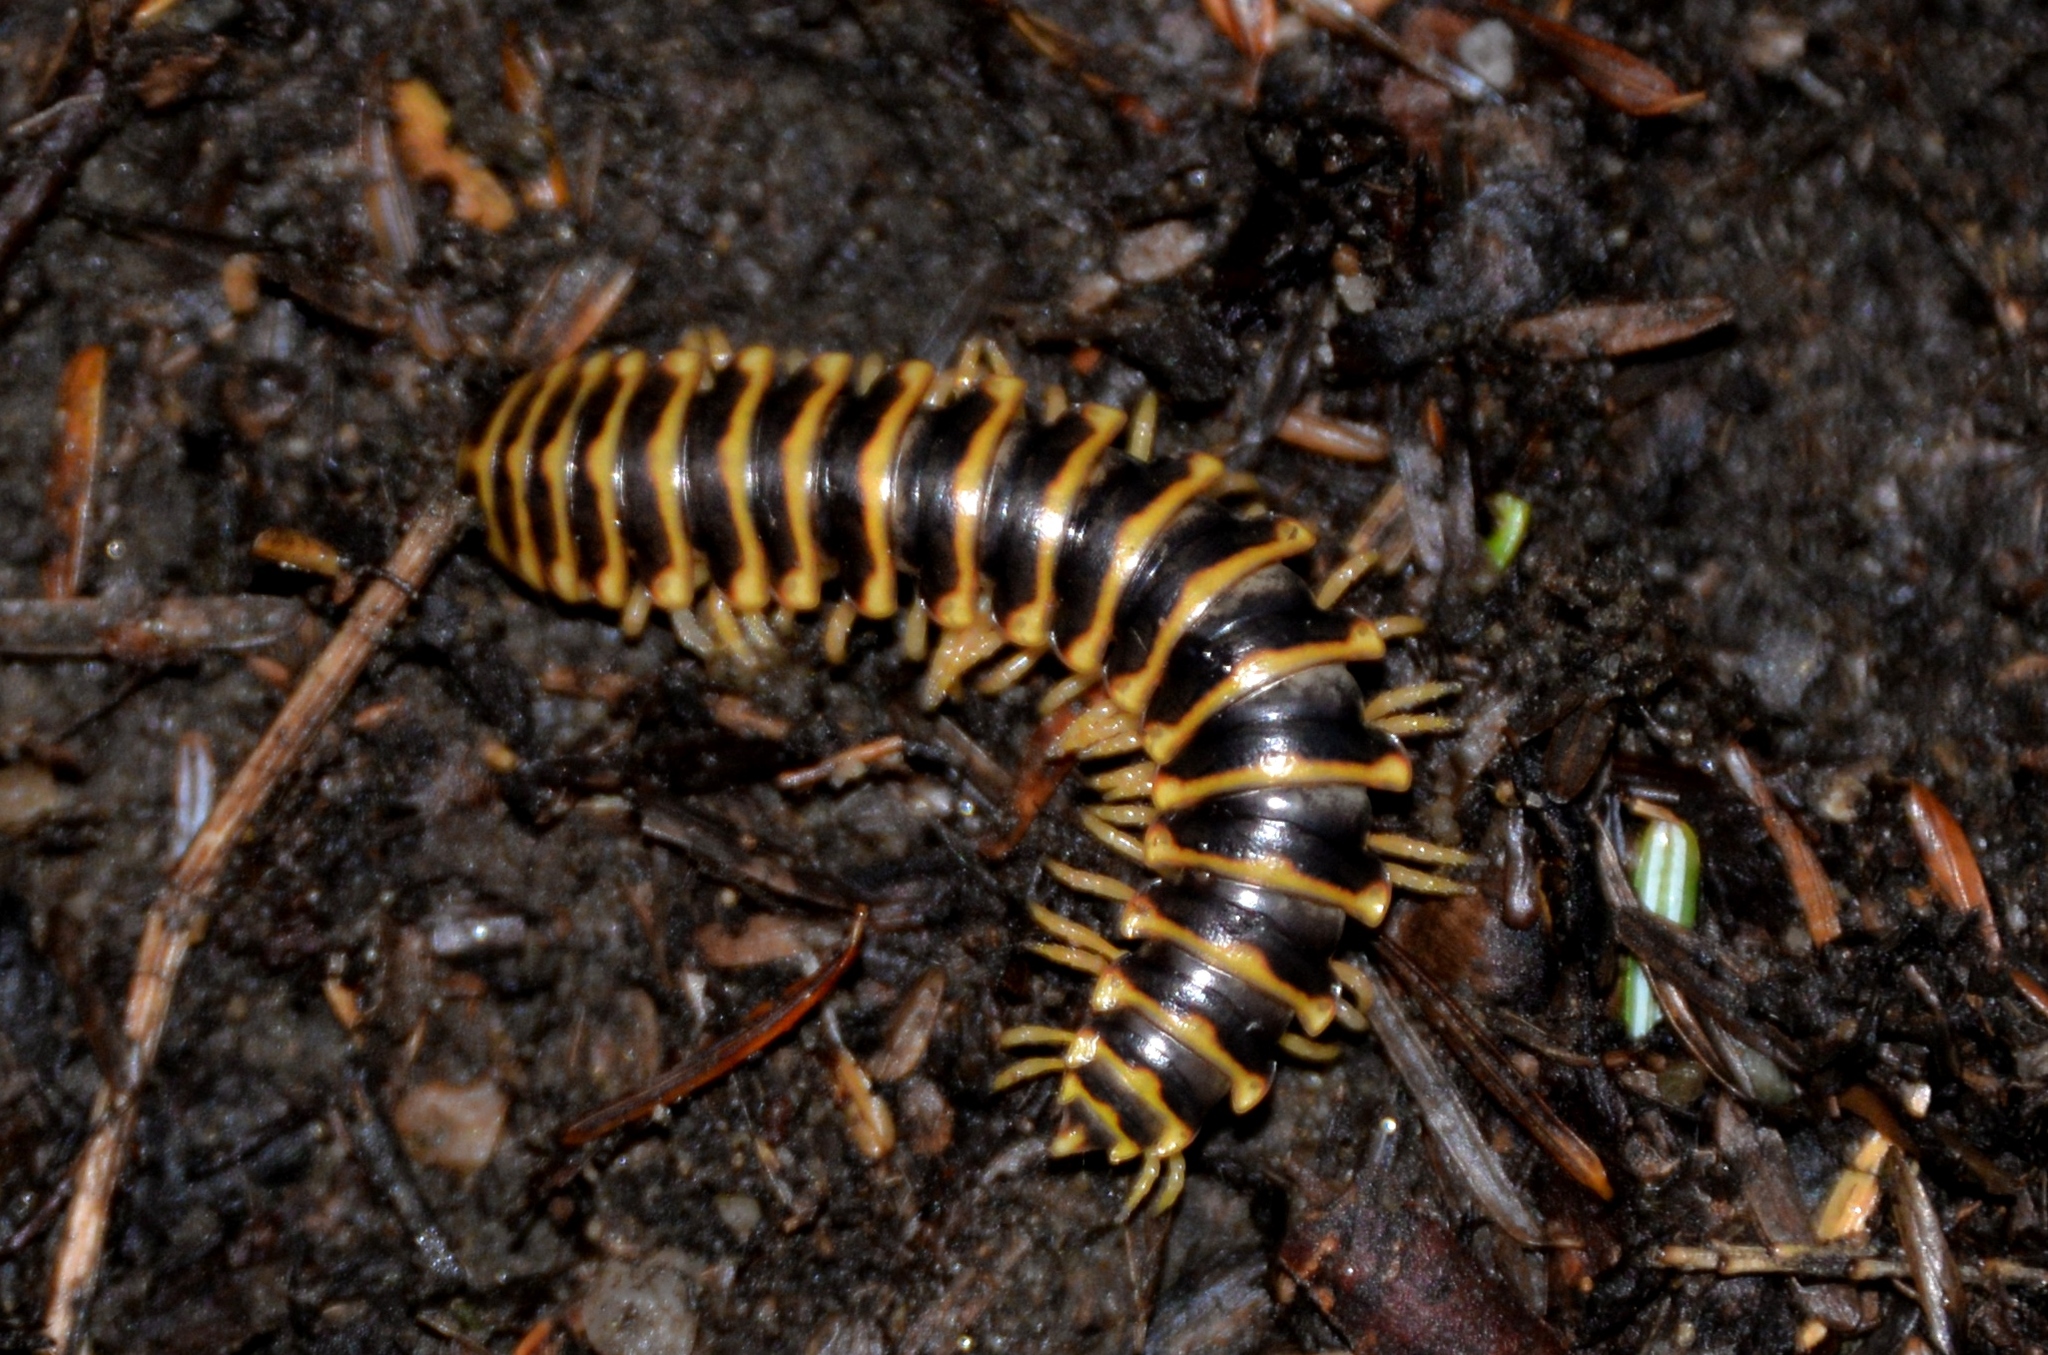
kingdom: Animalia
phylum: Arthropoda
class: Diplopoda
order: Polydesmida
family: Xystodesmidae
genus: Apheloria
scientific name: Apheloria virginiensis
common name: Black-and-gold flat millipede
